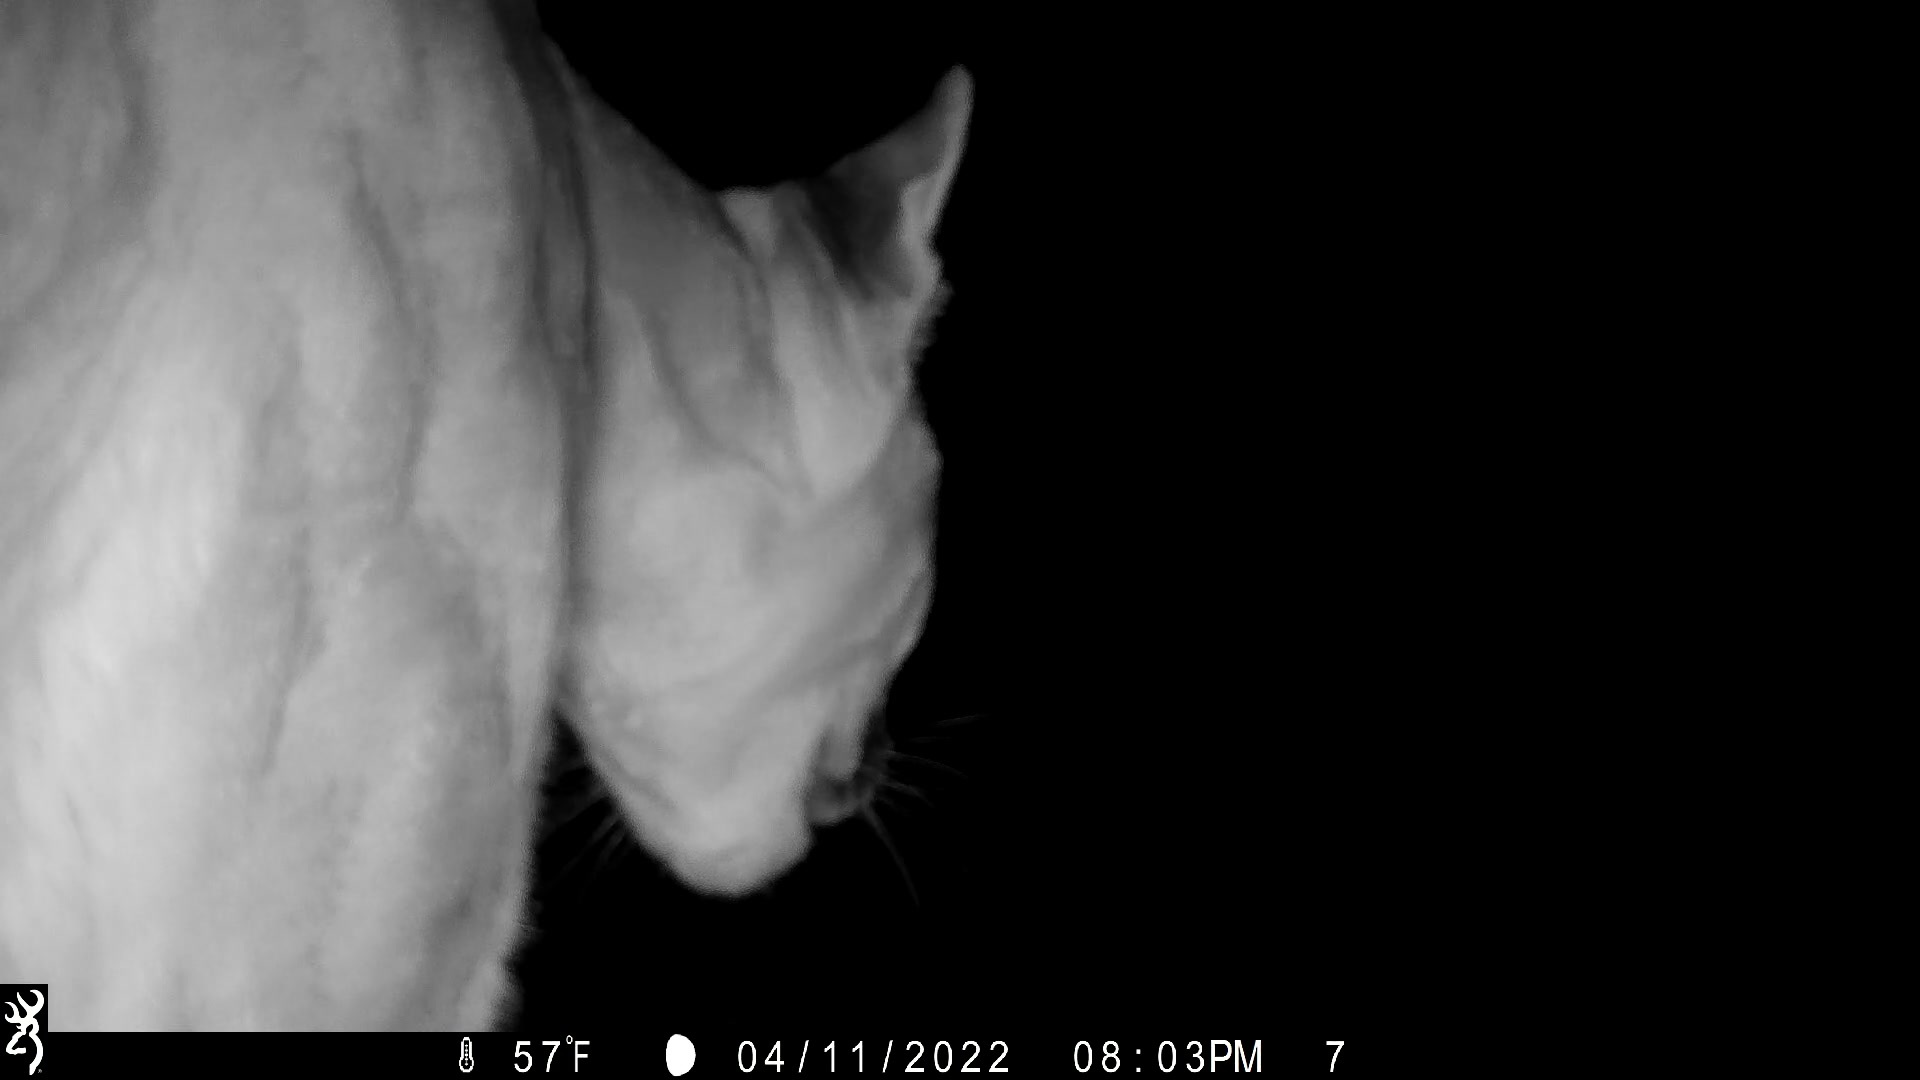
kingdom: Animalia
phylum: Chordata
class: Mammalia
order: Carnivora
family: Felidae
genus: Puma
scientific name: Puma concolor
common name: Puma
